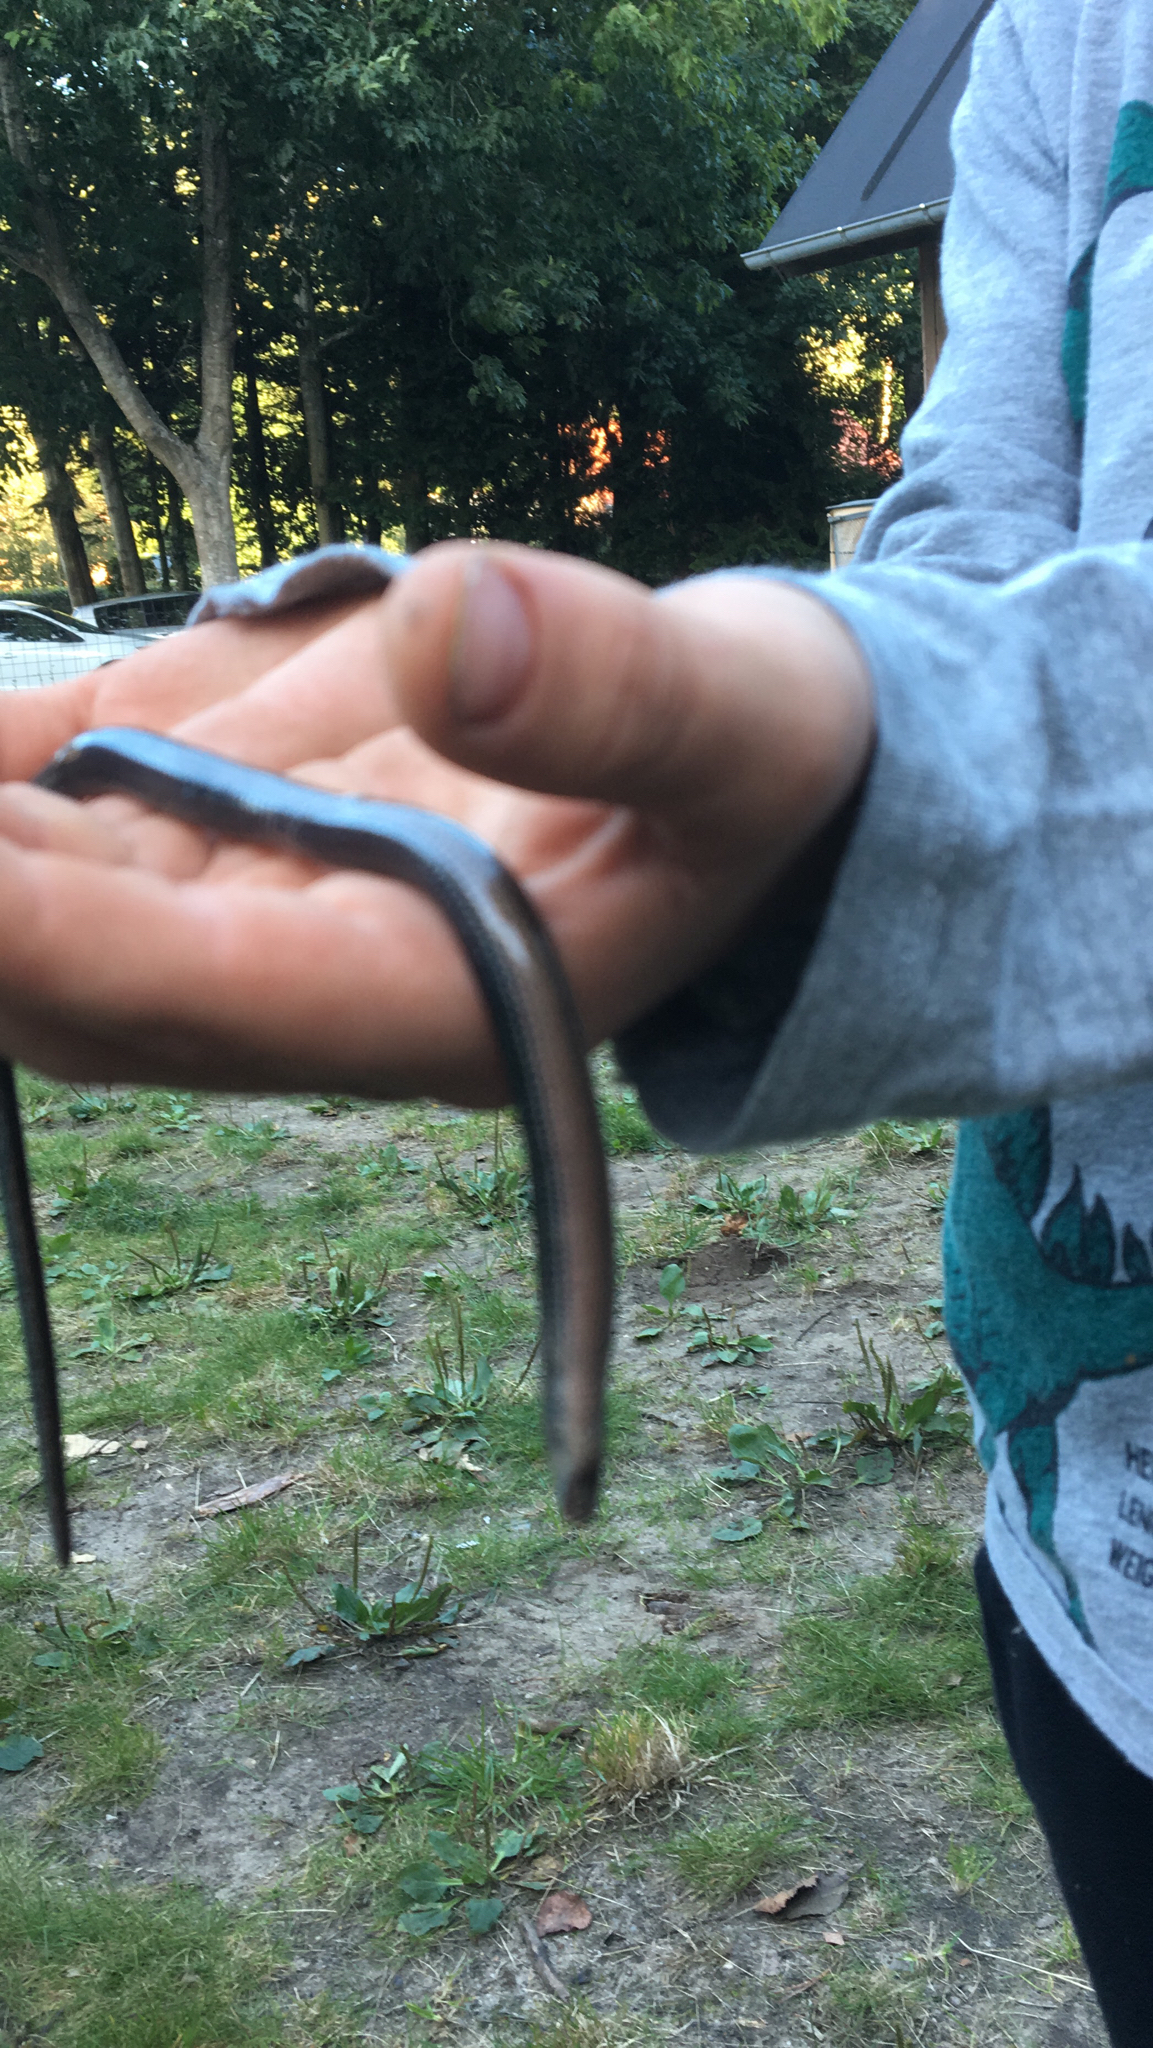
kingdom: Animalia
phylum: Chordata
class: Squamata
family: Anguidae
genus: Anguis
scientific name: Anguis fragilis
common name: Slow worm
